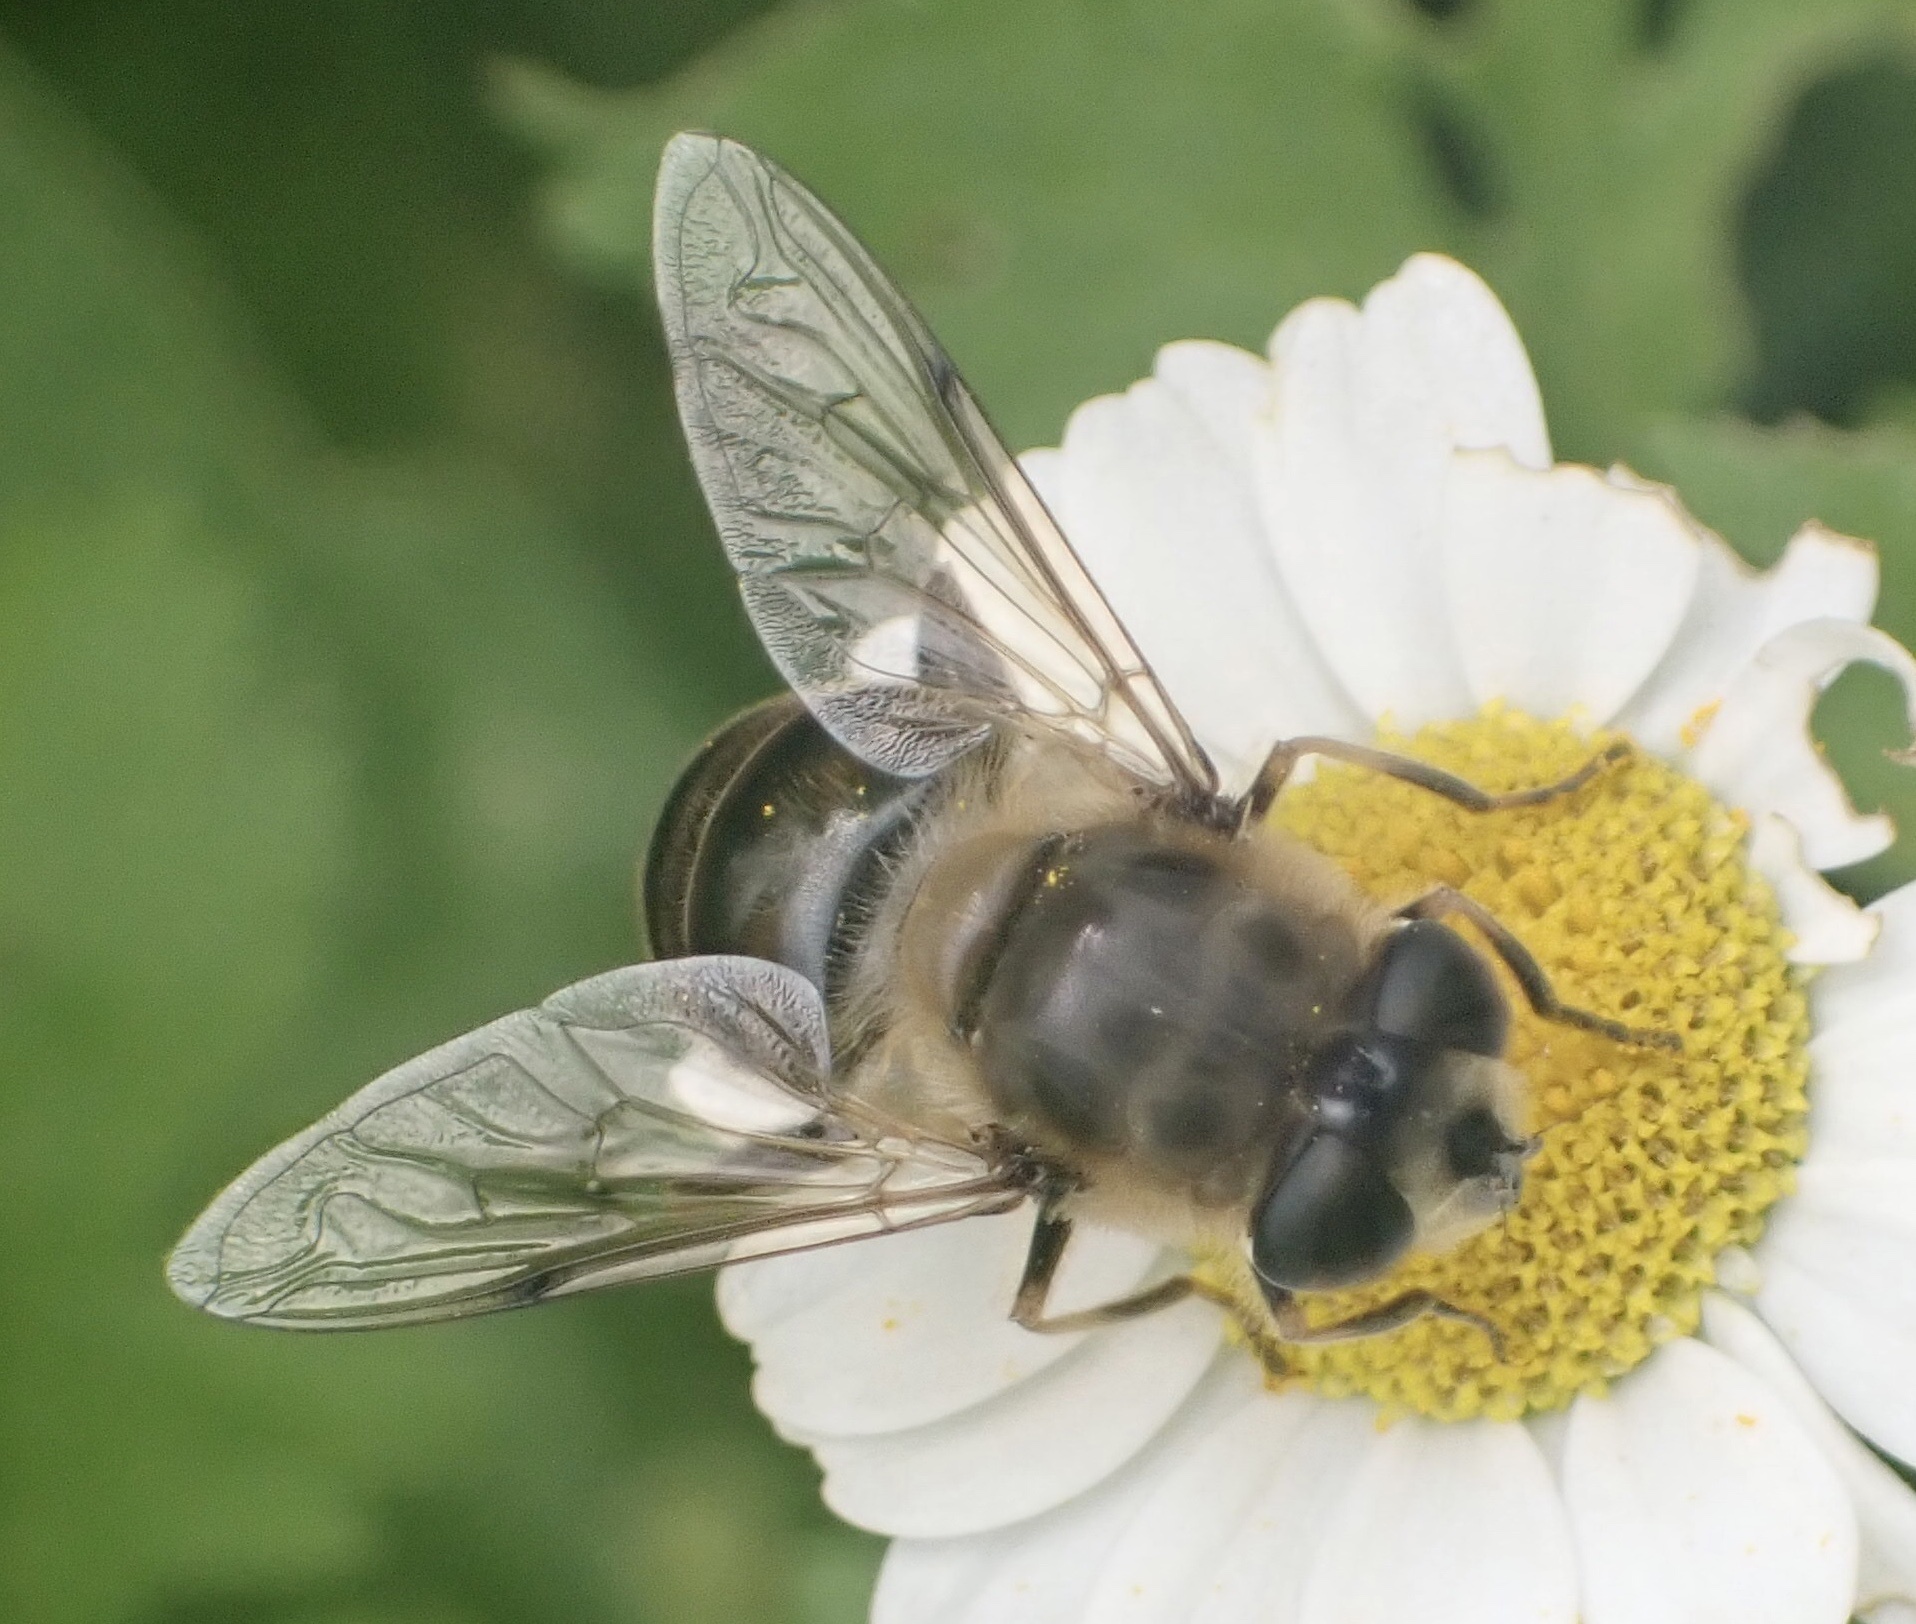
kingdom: Animalia
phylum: Arthropoda
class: Insecta
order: Diptera
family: Syrphidae
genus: Eristalis
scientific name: Eristalis tenax
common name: Drone fly
